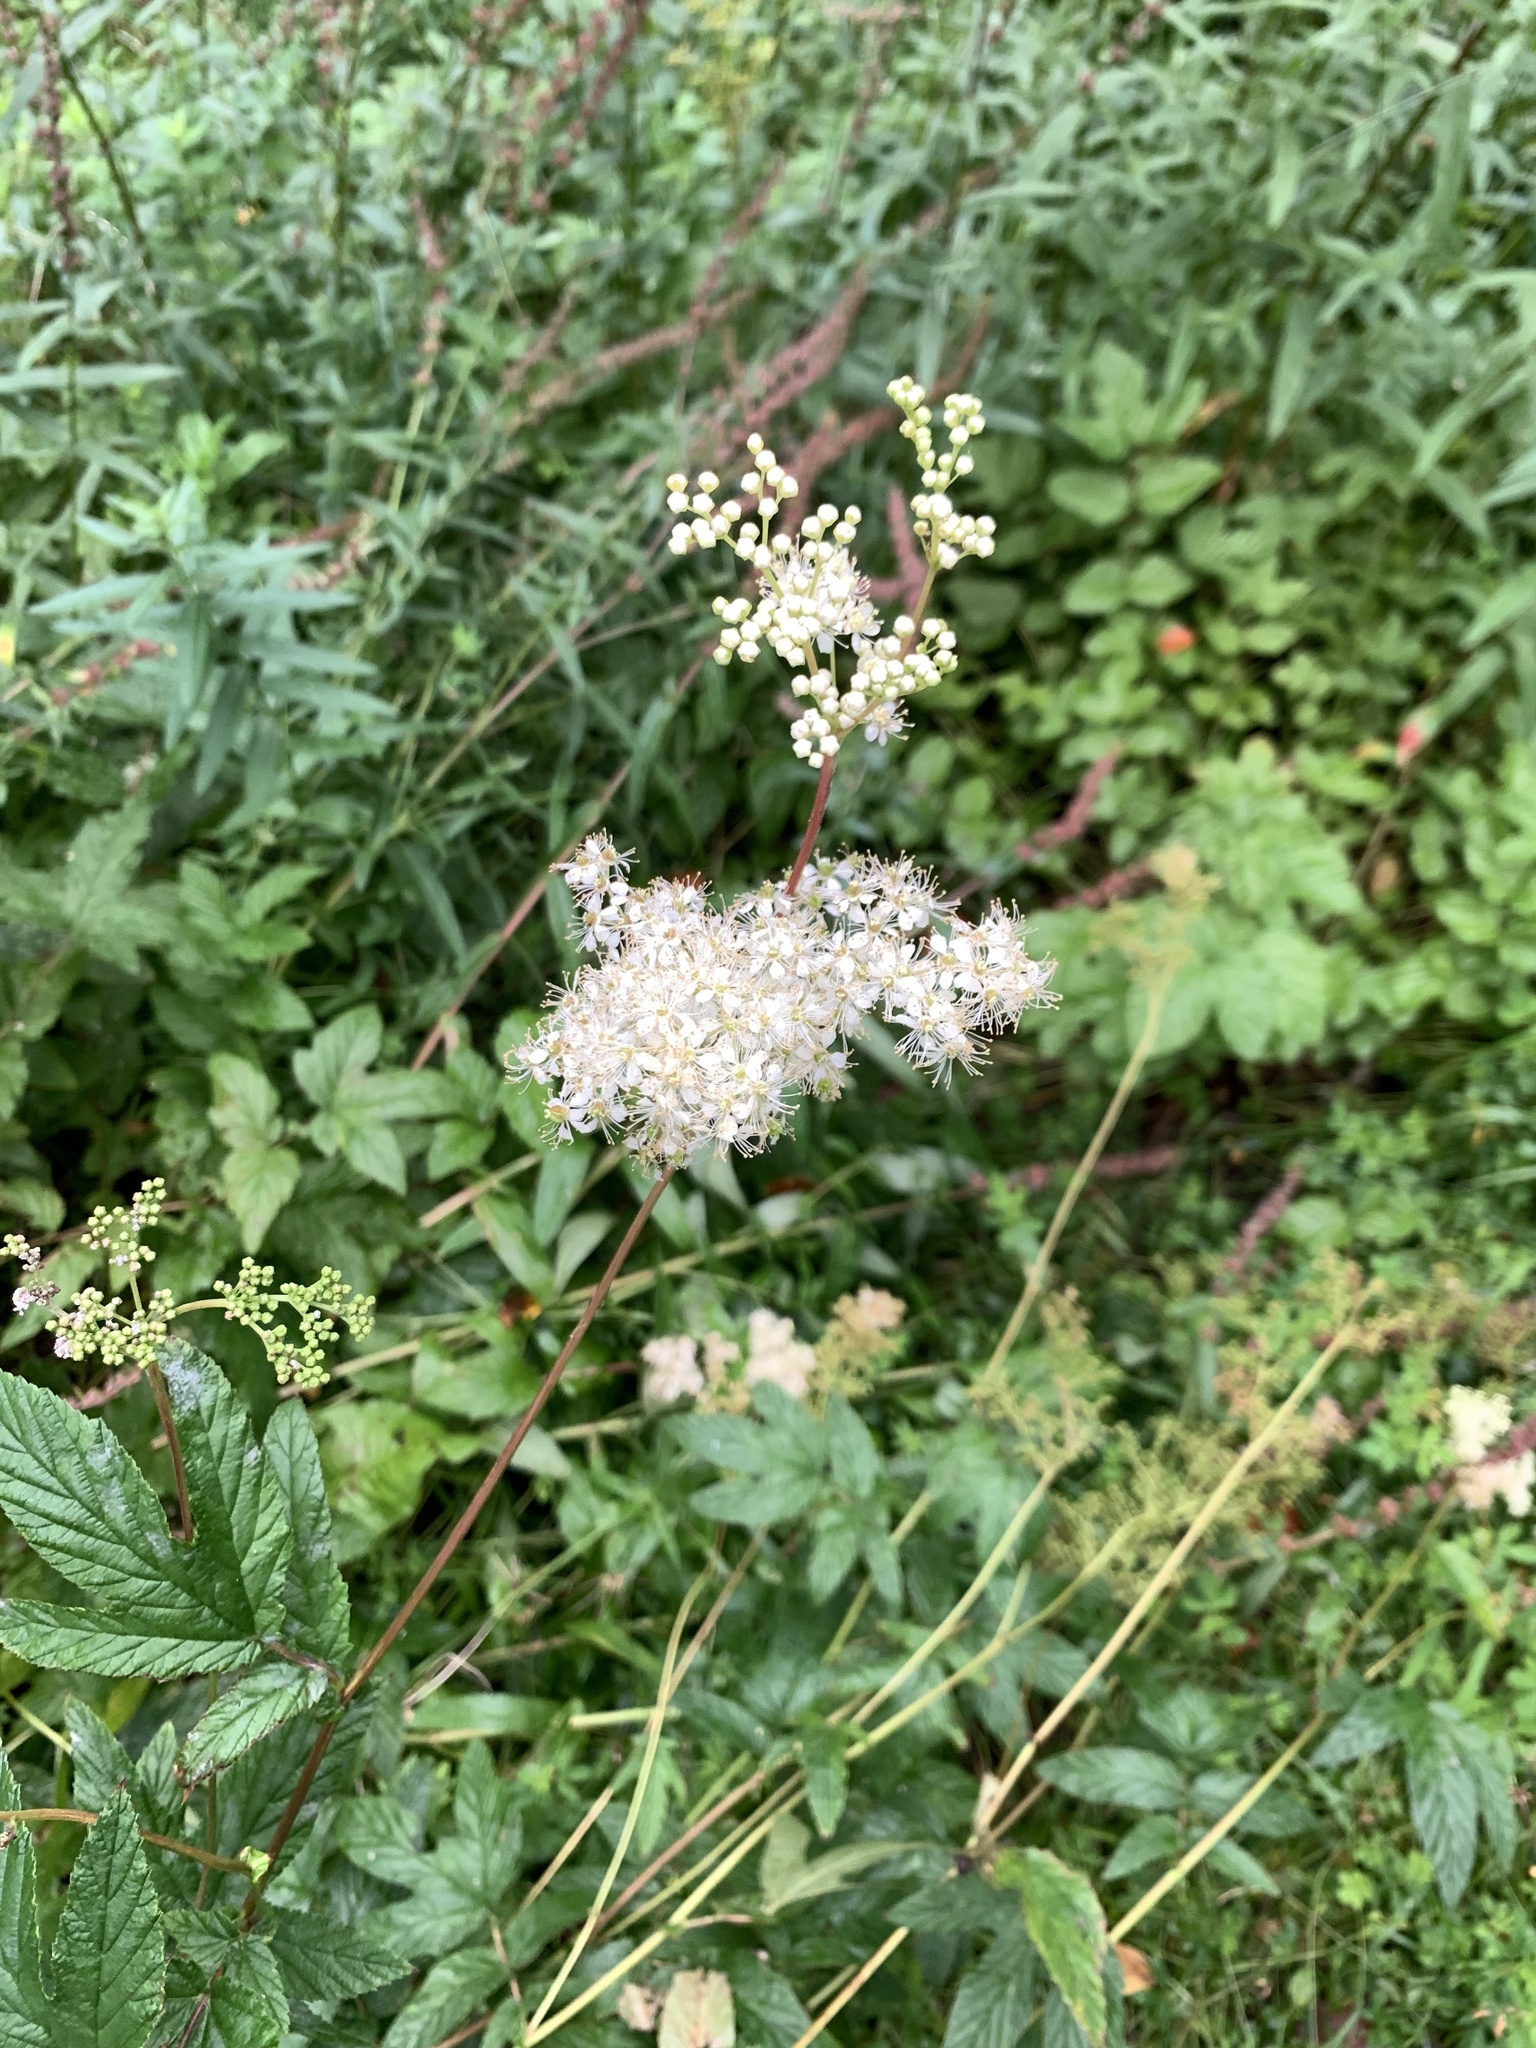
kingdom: Plantae
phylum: Tracheophyta
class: Magnoliopsida
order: Rosales
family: Rosaceae
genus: Filipendula
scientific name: Filipendula ulmaria
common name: Meadowsweet
